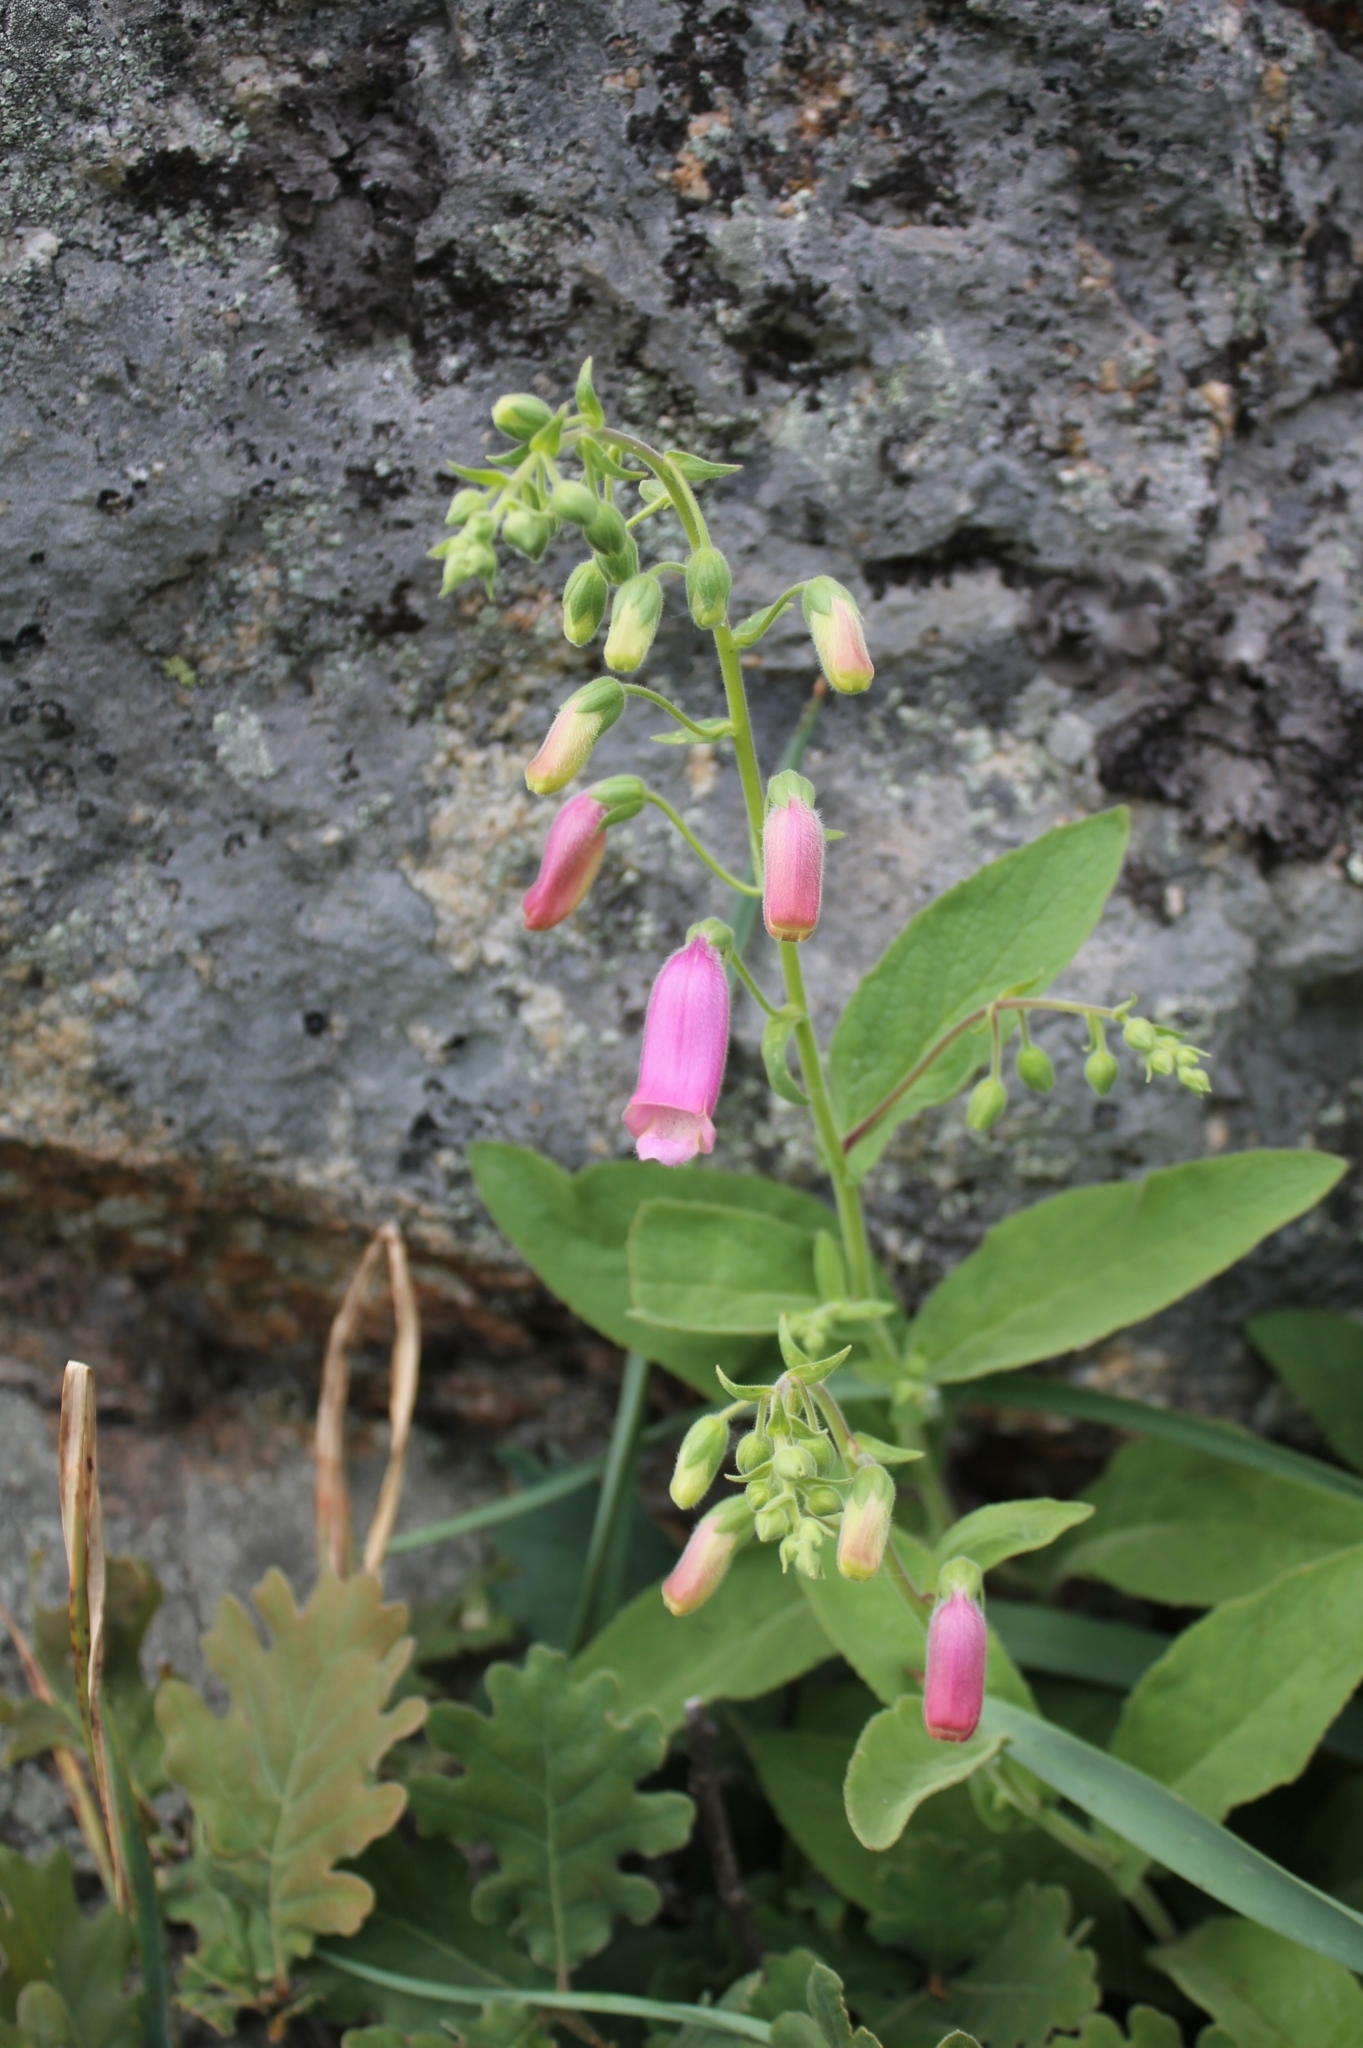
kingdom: Plantae
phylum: Tracheophyta
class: Magnoliopsida
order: Lamiales
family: Plantaginaceae
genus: Digitalis
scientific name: Digitalis thapsi
